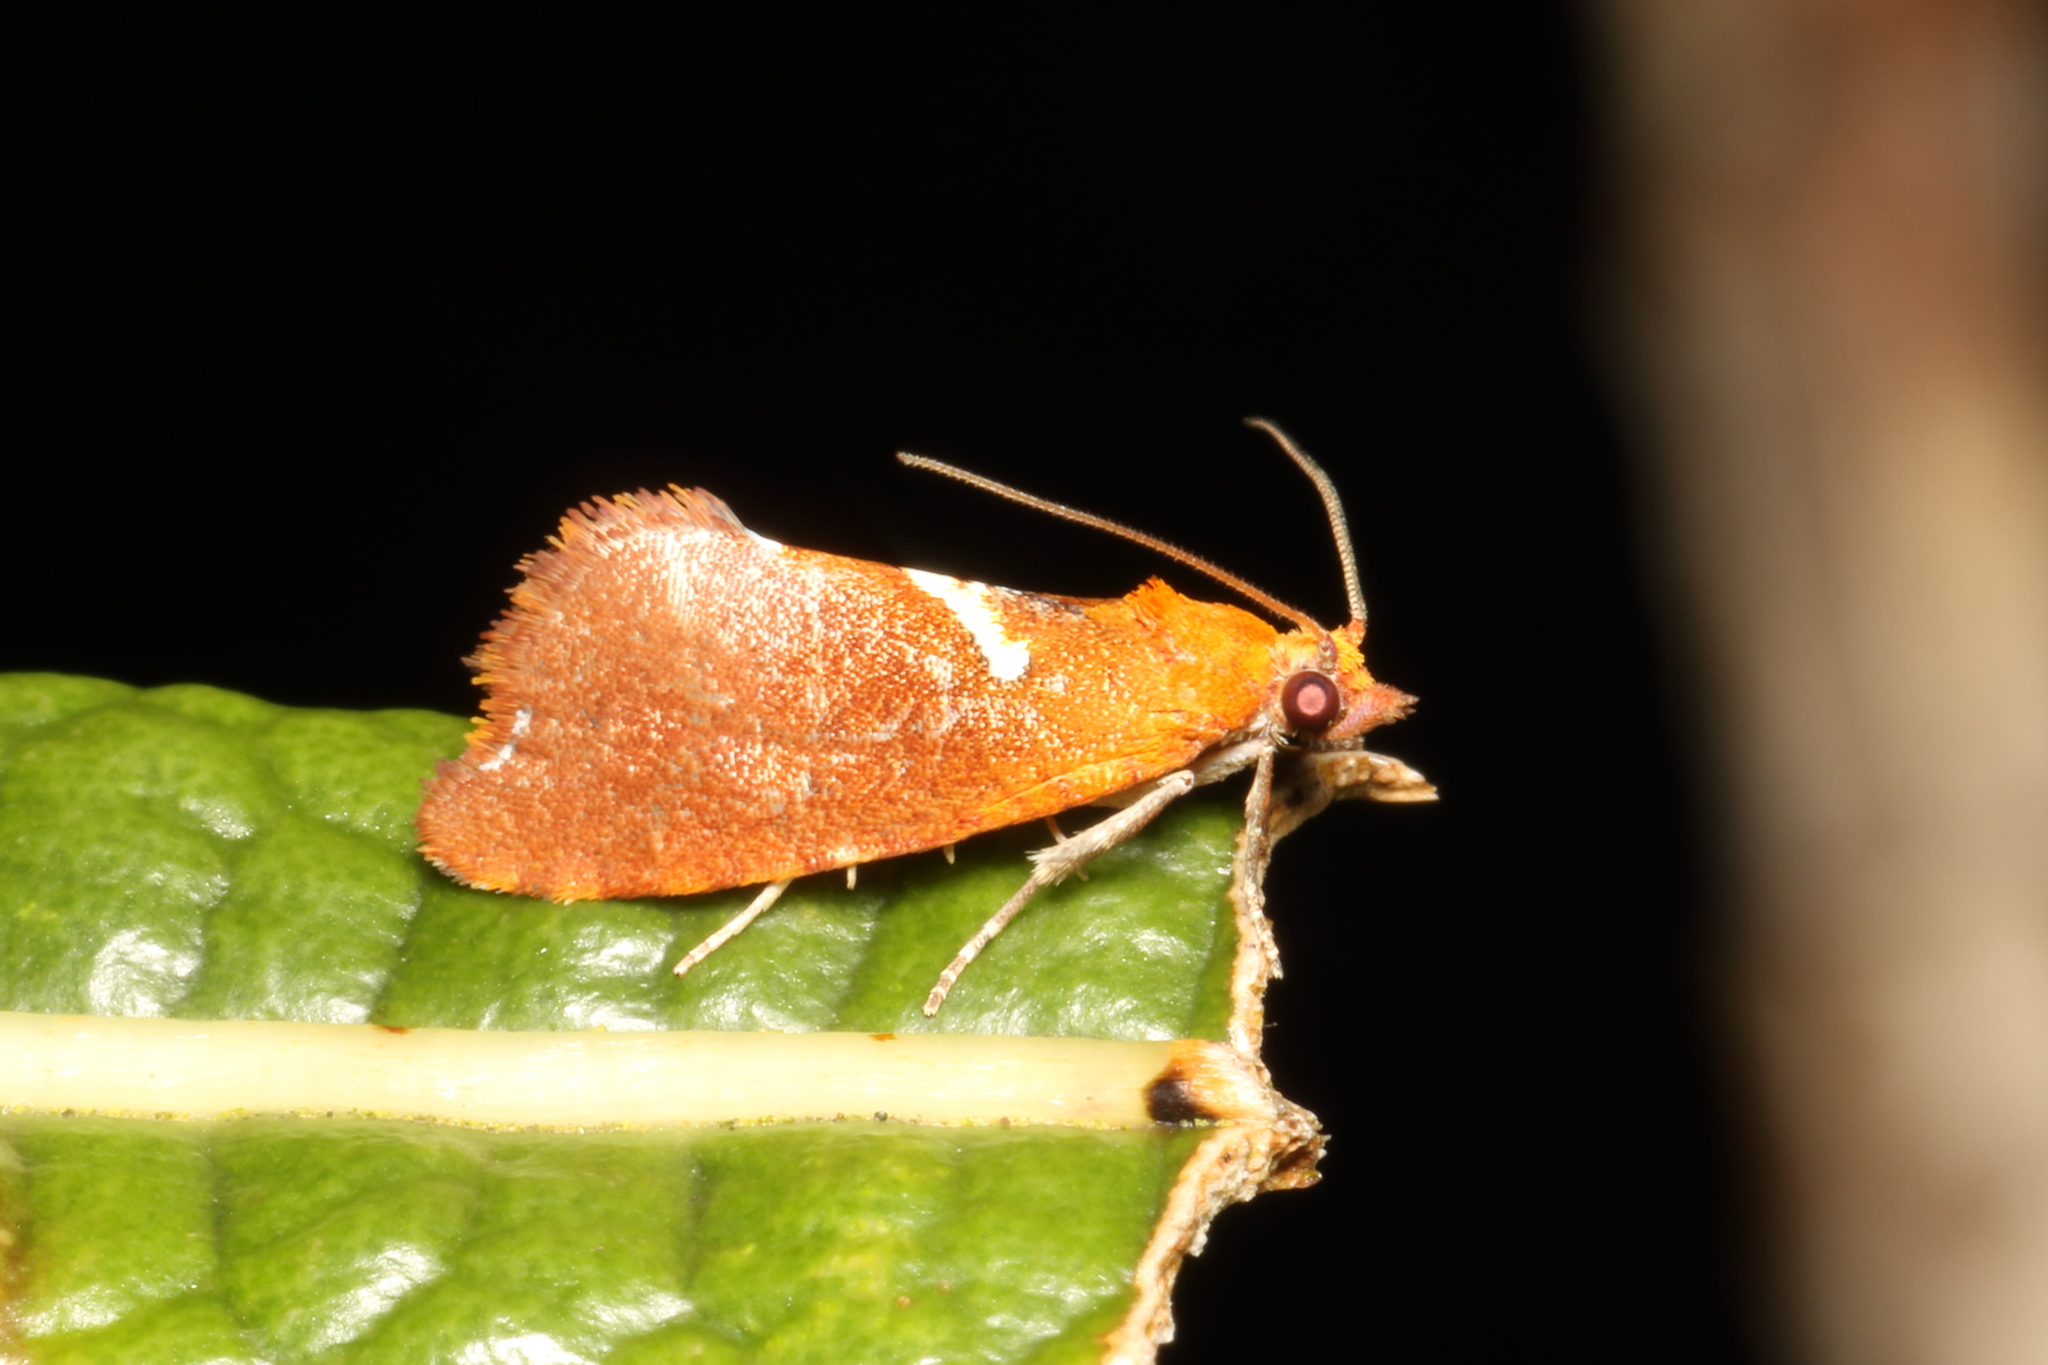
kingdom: Animalia
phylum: Arthropoda
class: Insecta
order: Lepidoptera
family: Tortricidae
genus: Pyrgotis
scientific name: Pyrgotis pyramidias
